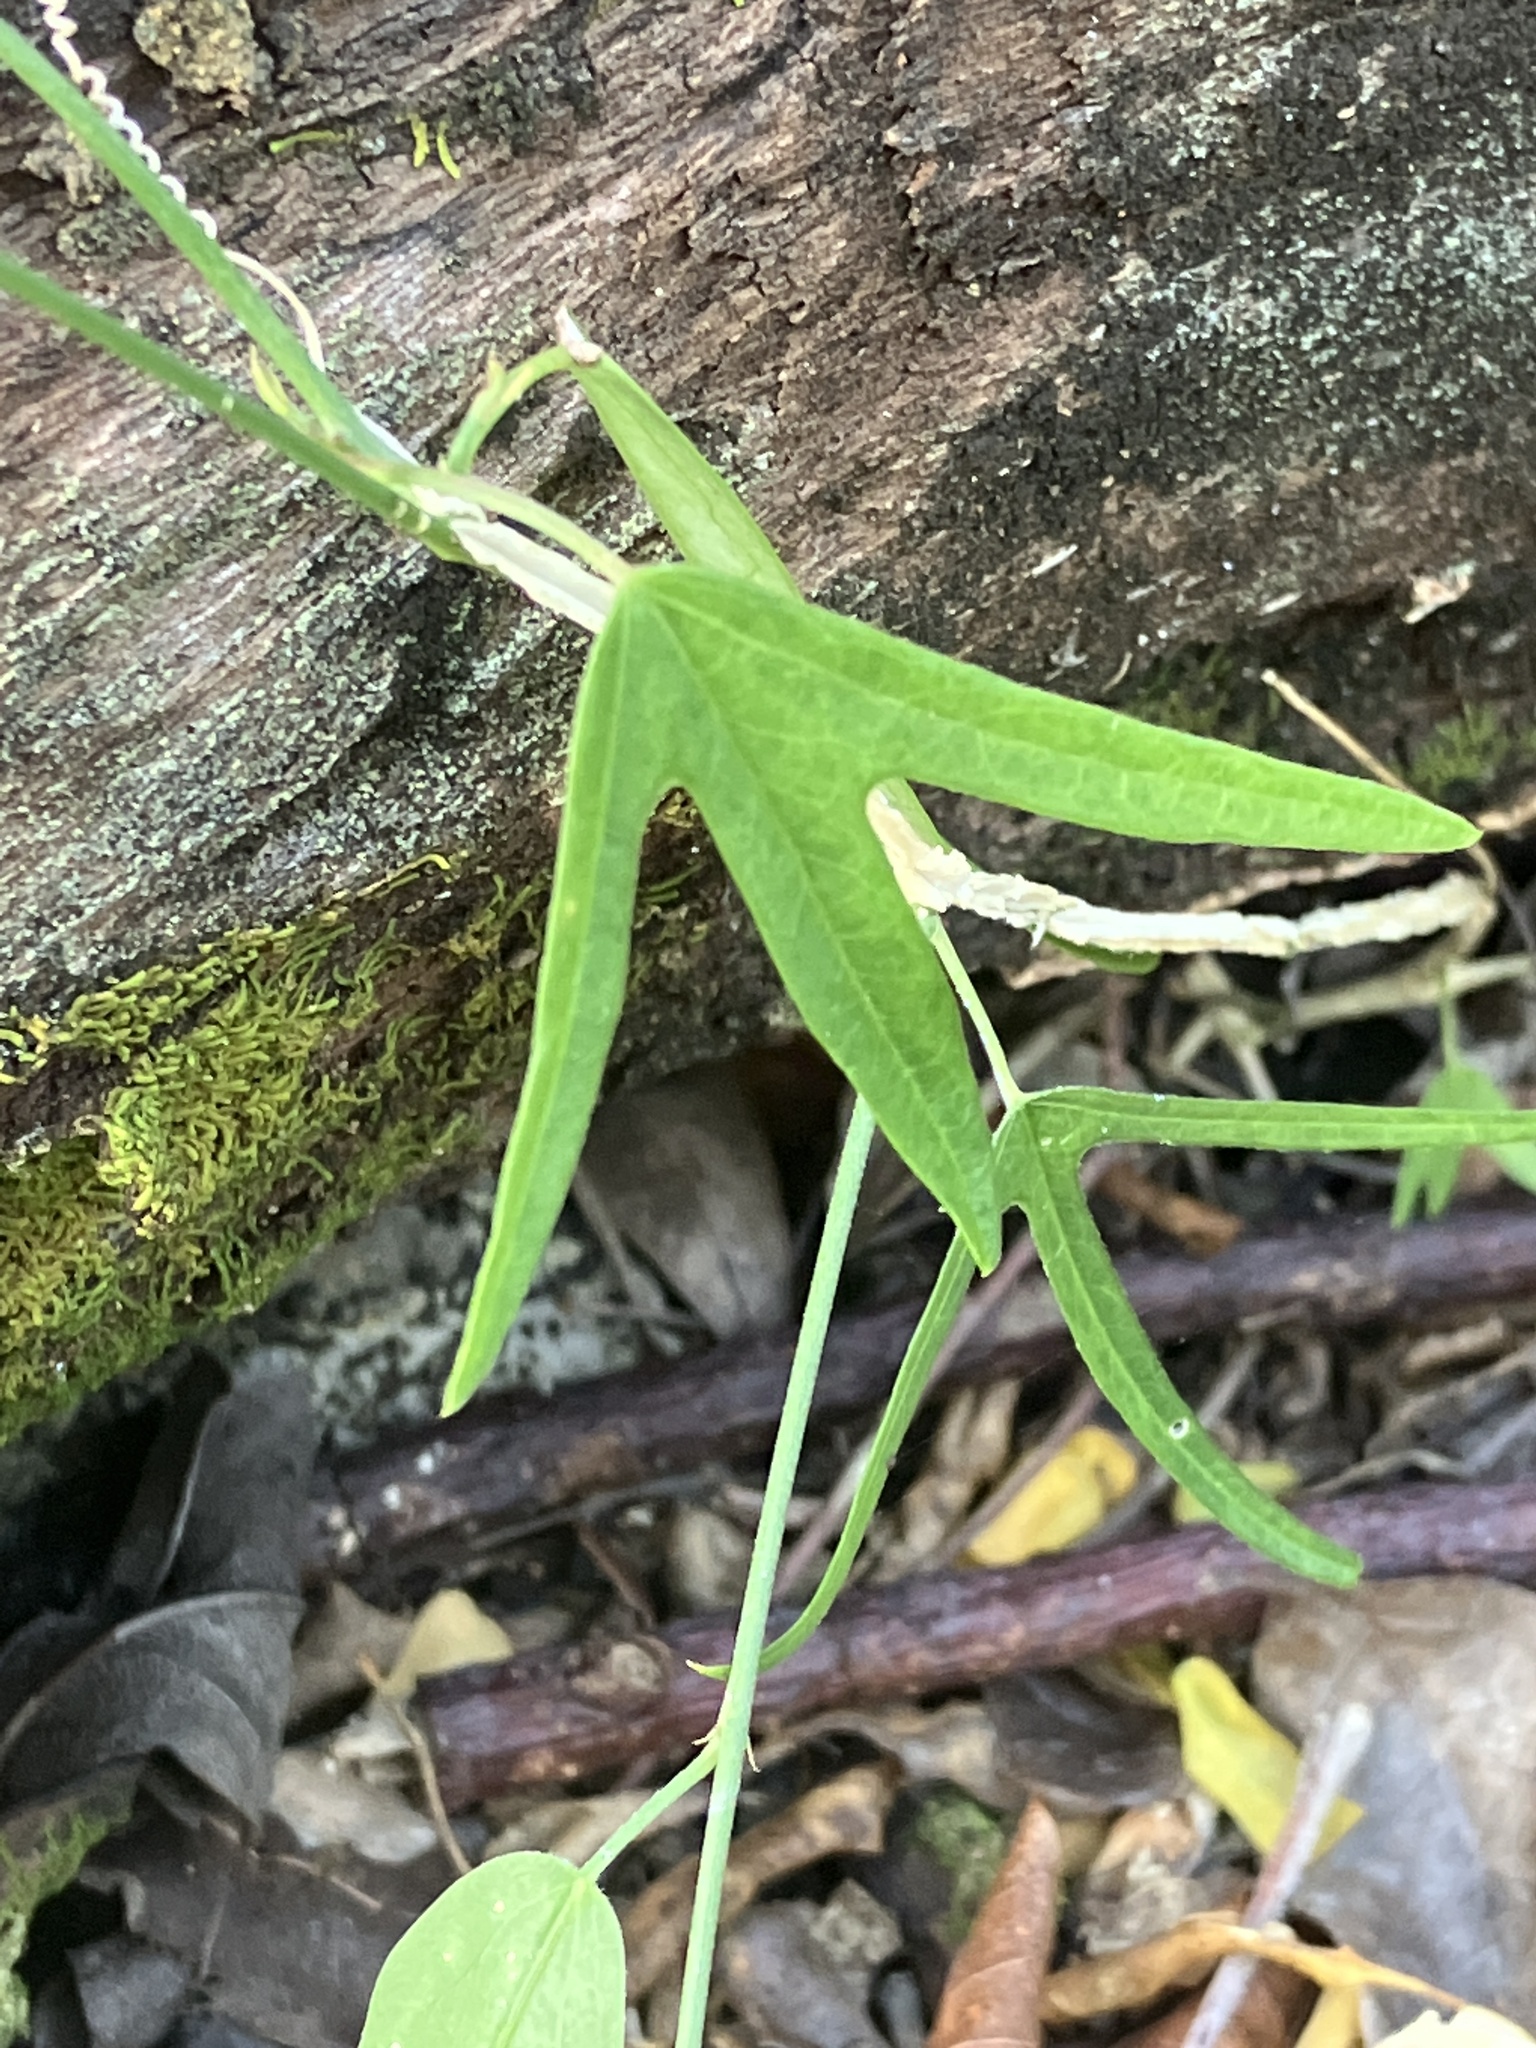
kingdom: Plantae
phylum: Tracheophyta
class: Magnoliopsida
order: Malpighiales
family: Passifloraceae
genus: Passiflora
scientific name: Passiflora pallida
